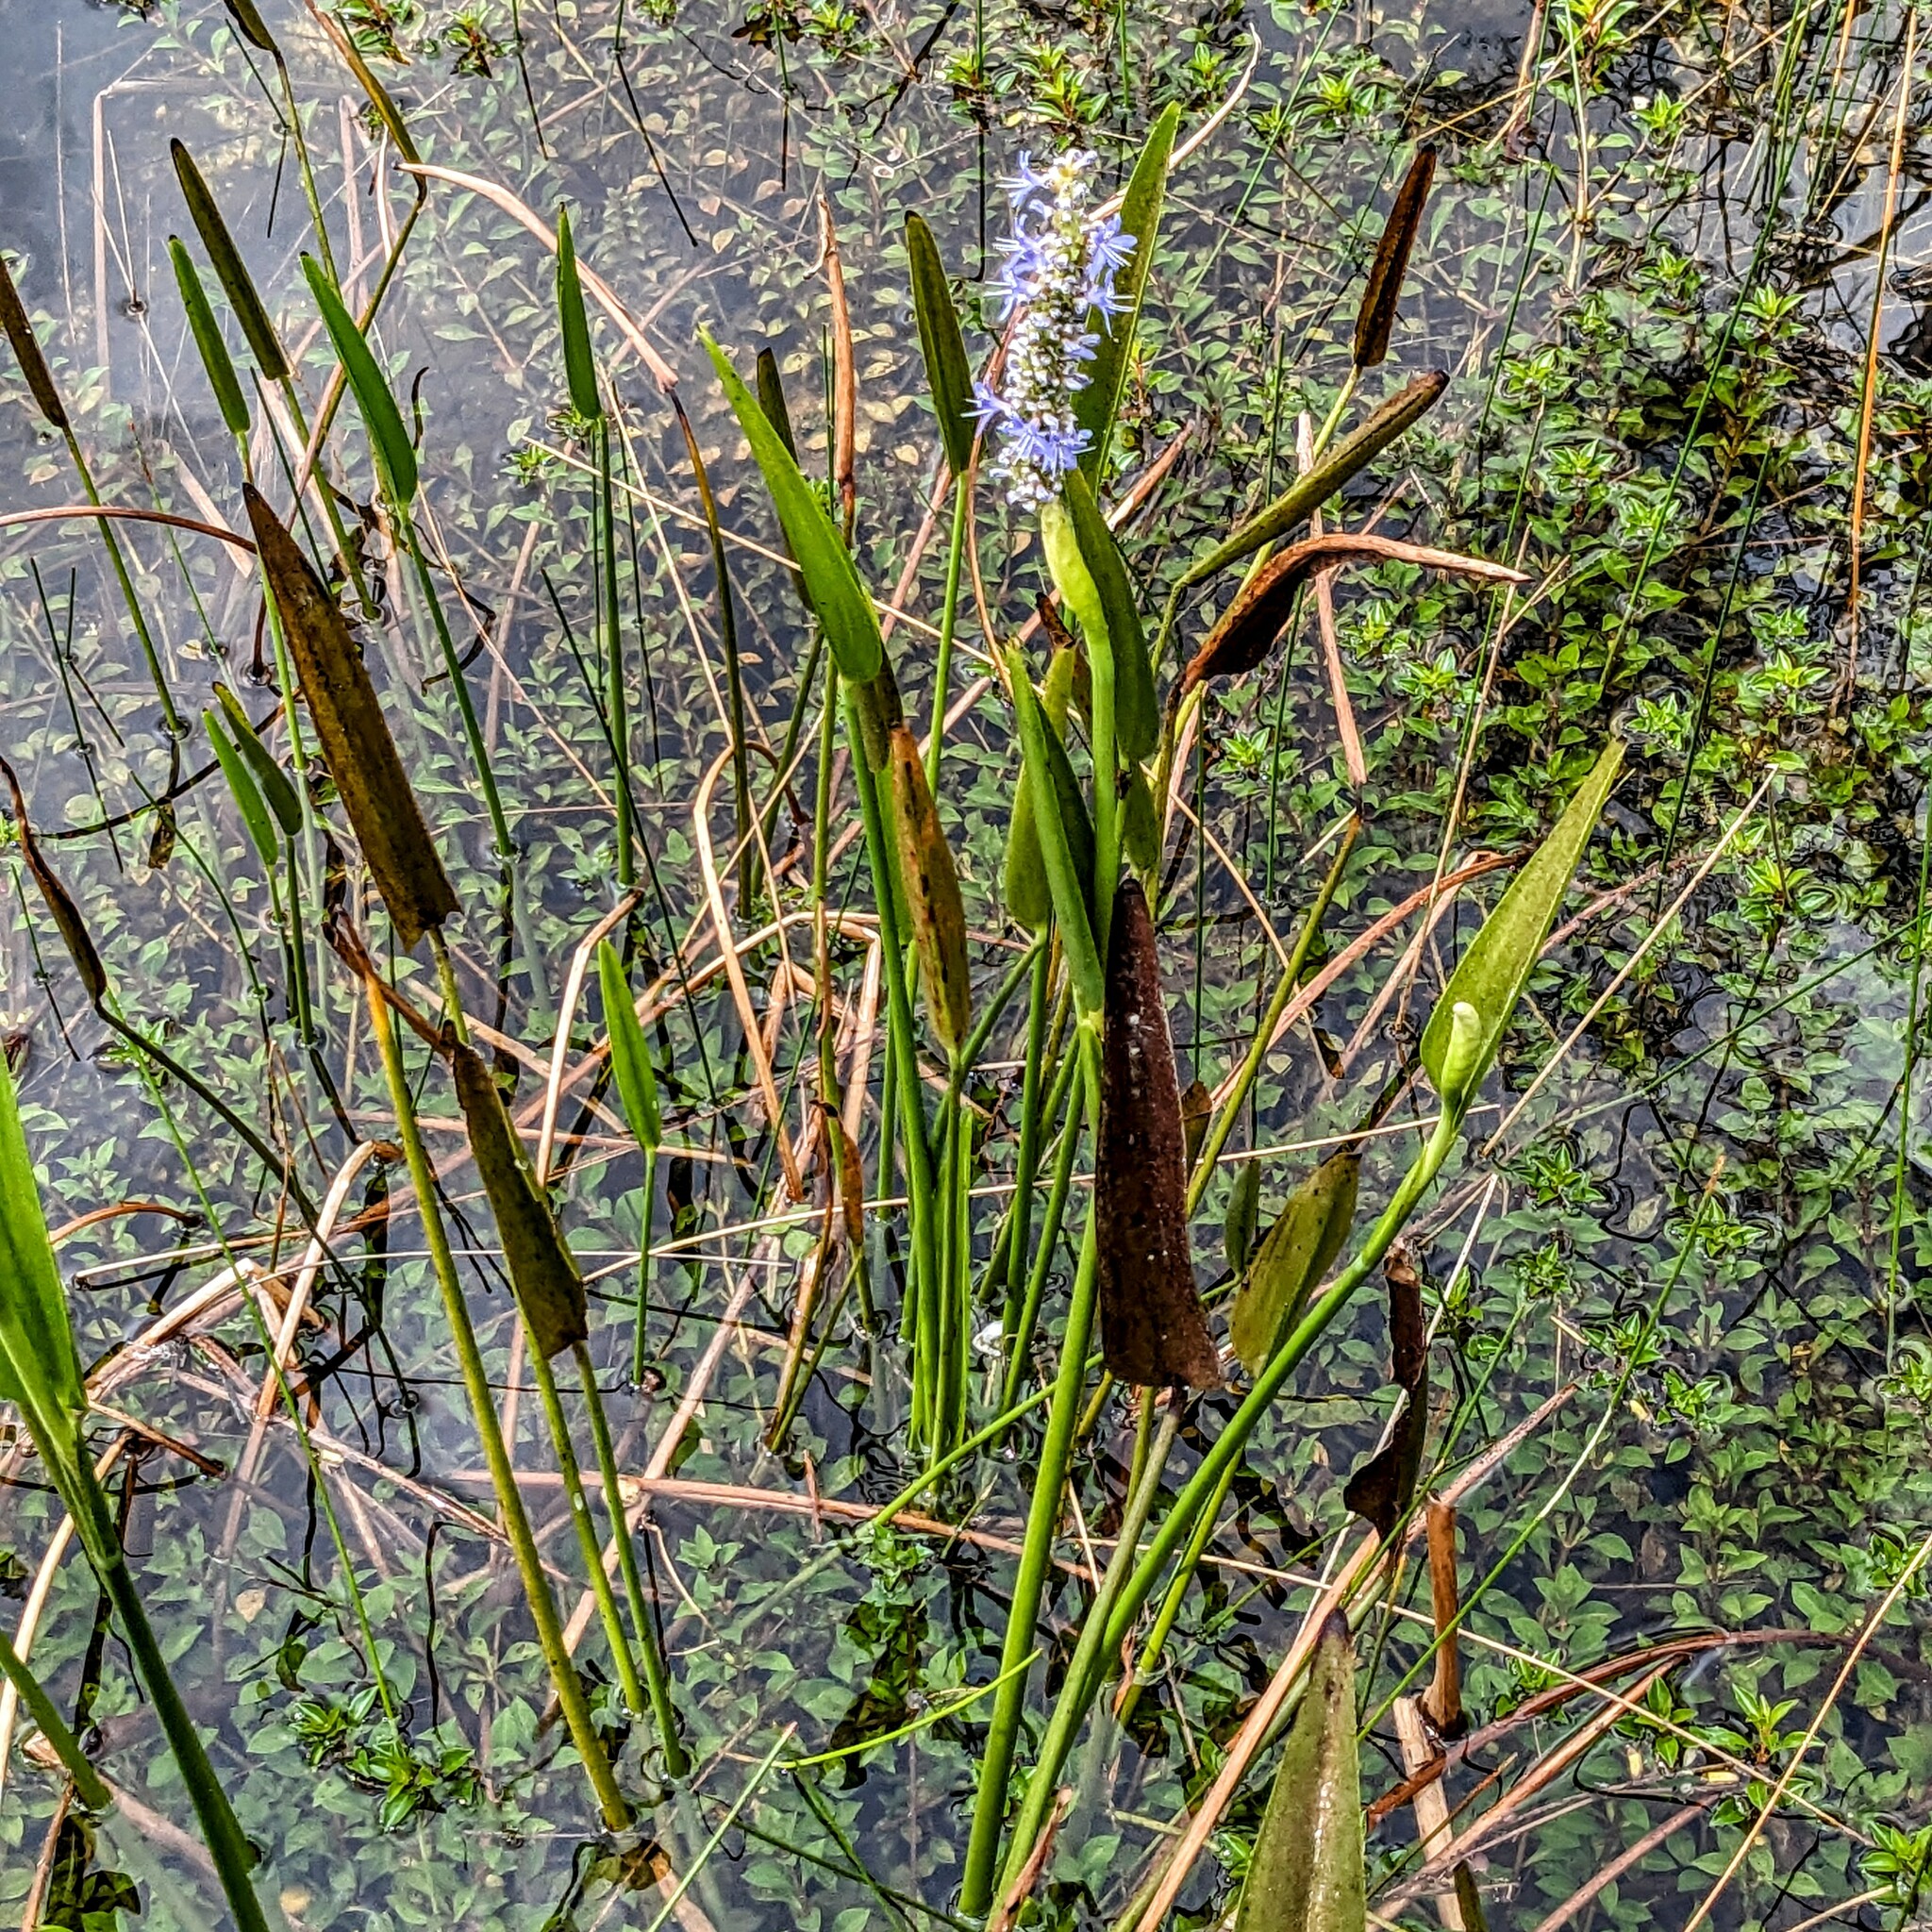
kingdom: Plantae
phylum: Tracheophyta
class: Liliopsida
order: Commelinales
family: Pontederiaceae
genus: Pontederia
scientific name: Pontederia cordata
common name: Pickerelweed
